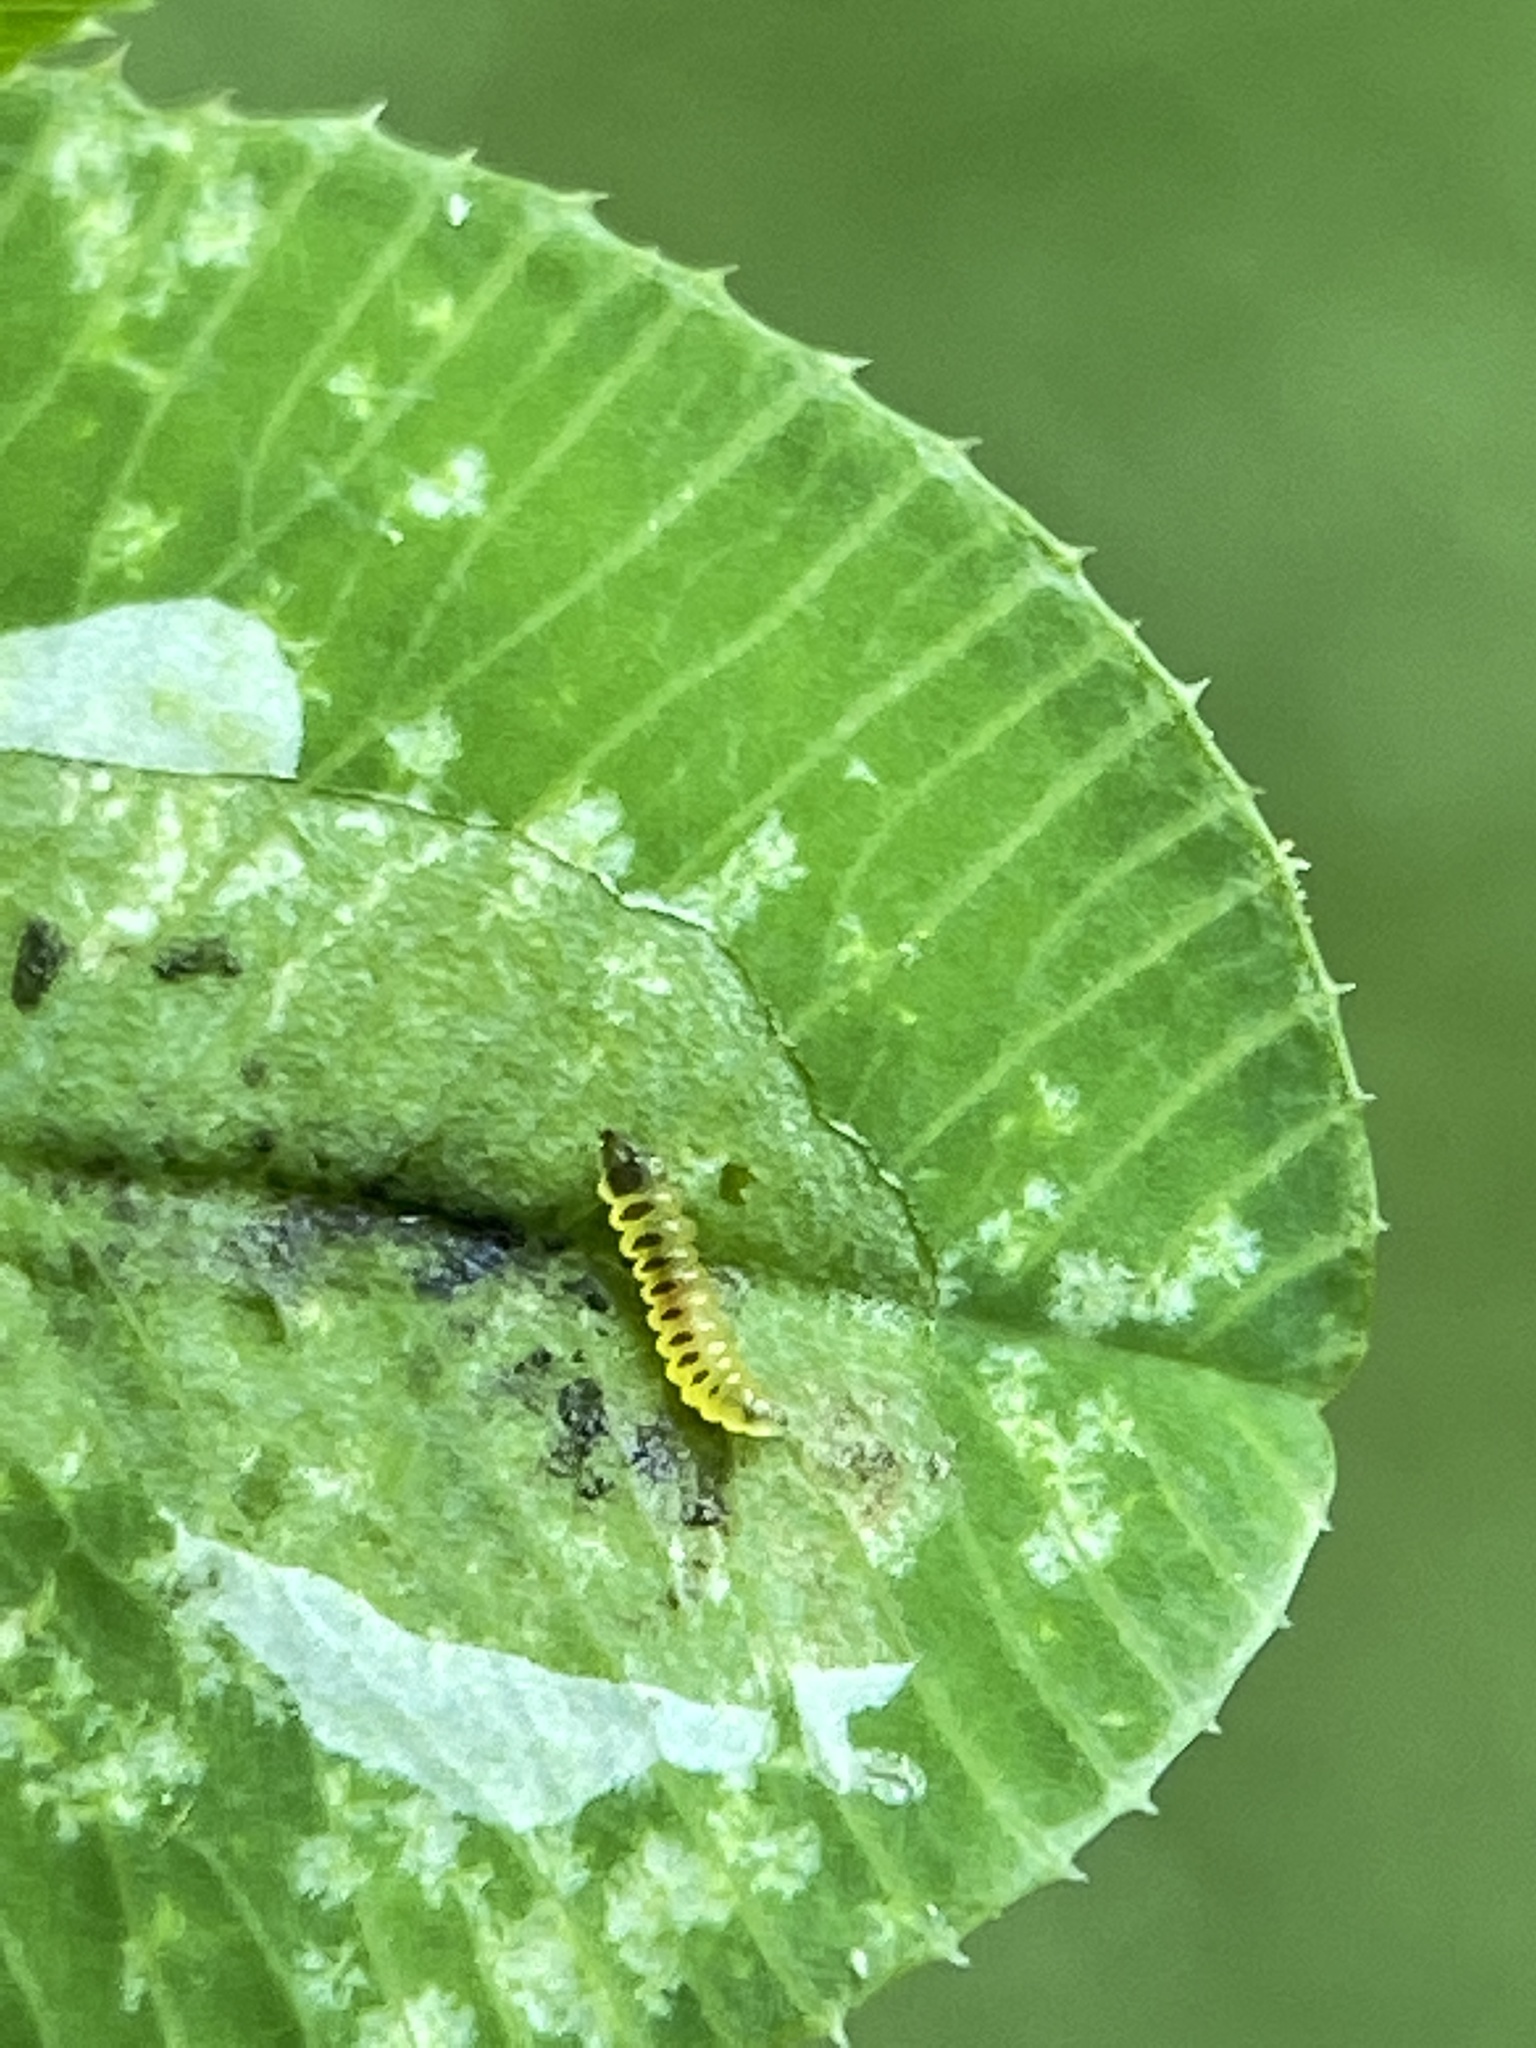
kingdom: Animalia
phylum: Arthropoda
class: Insecta
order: Lepidoptera
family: Gracillariidae
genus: Porphyrosela
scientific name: Porphyrosela minuta
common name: Leaf miner moth
